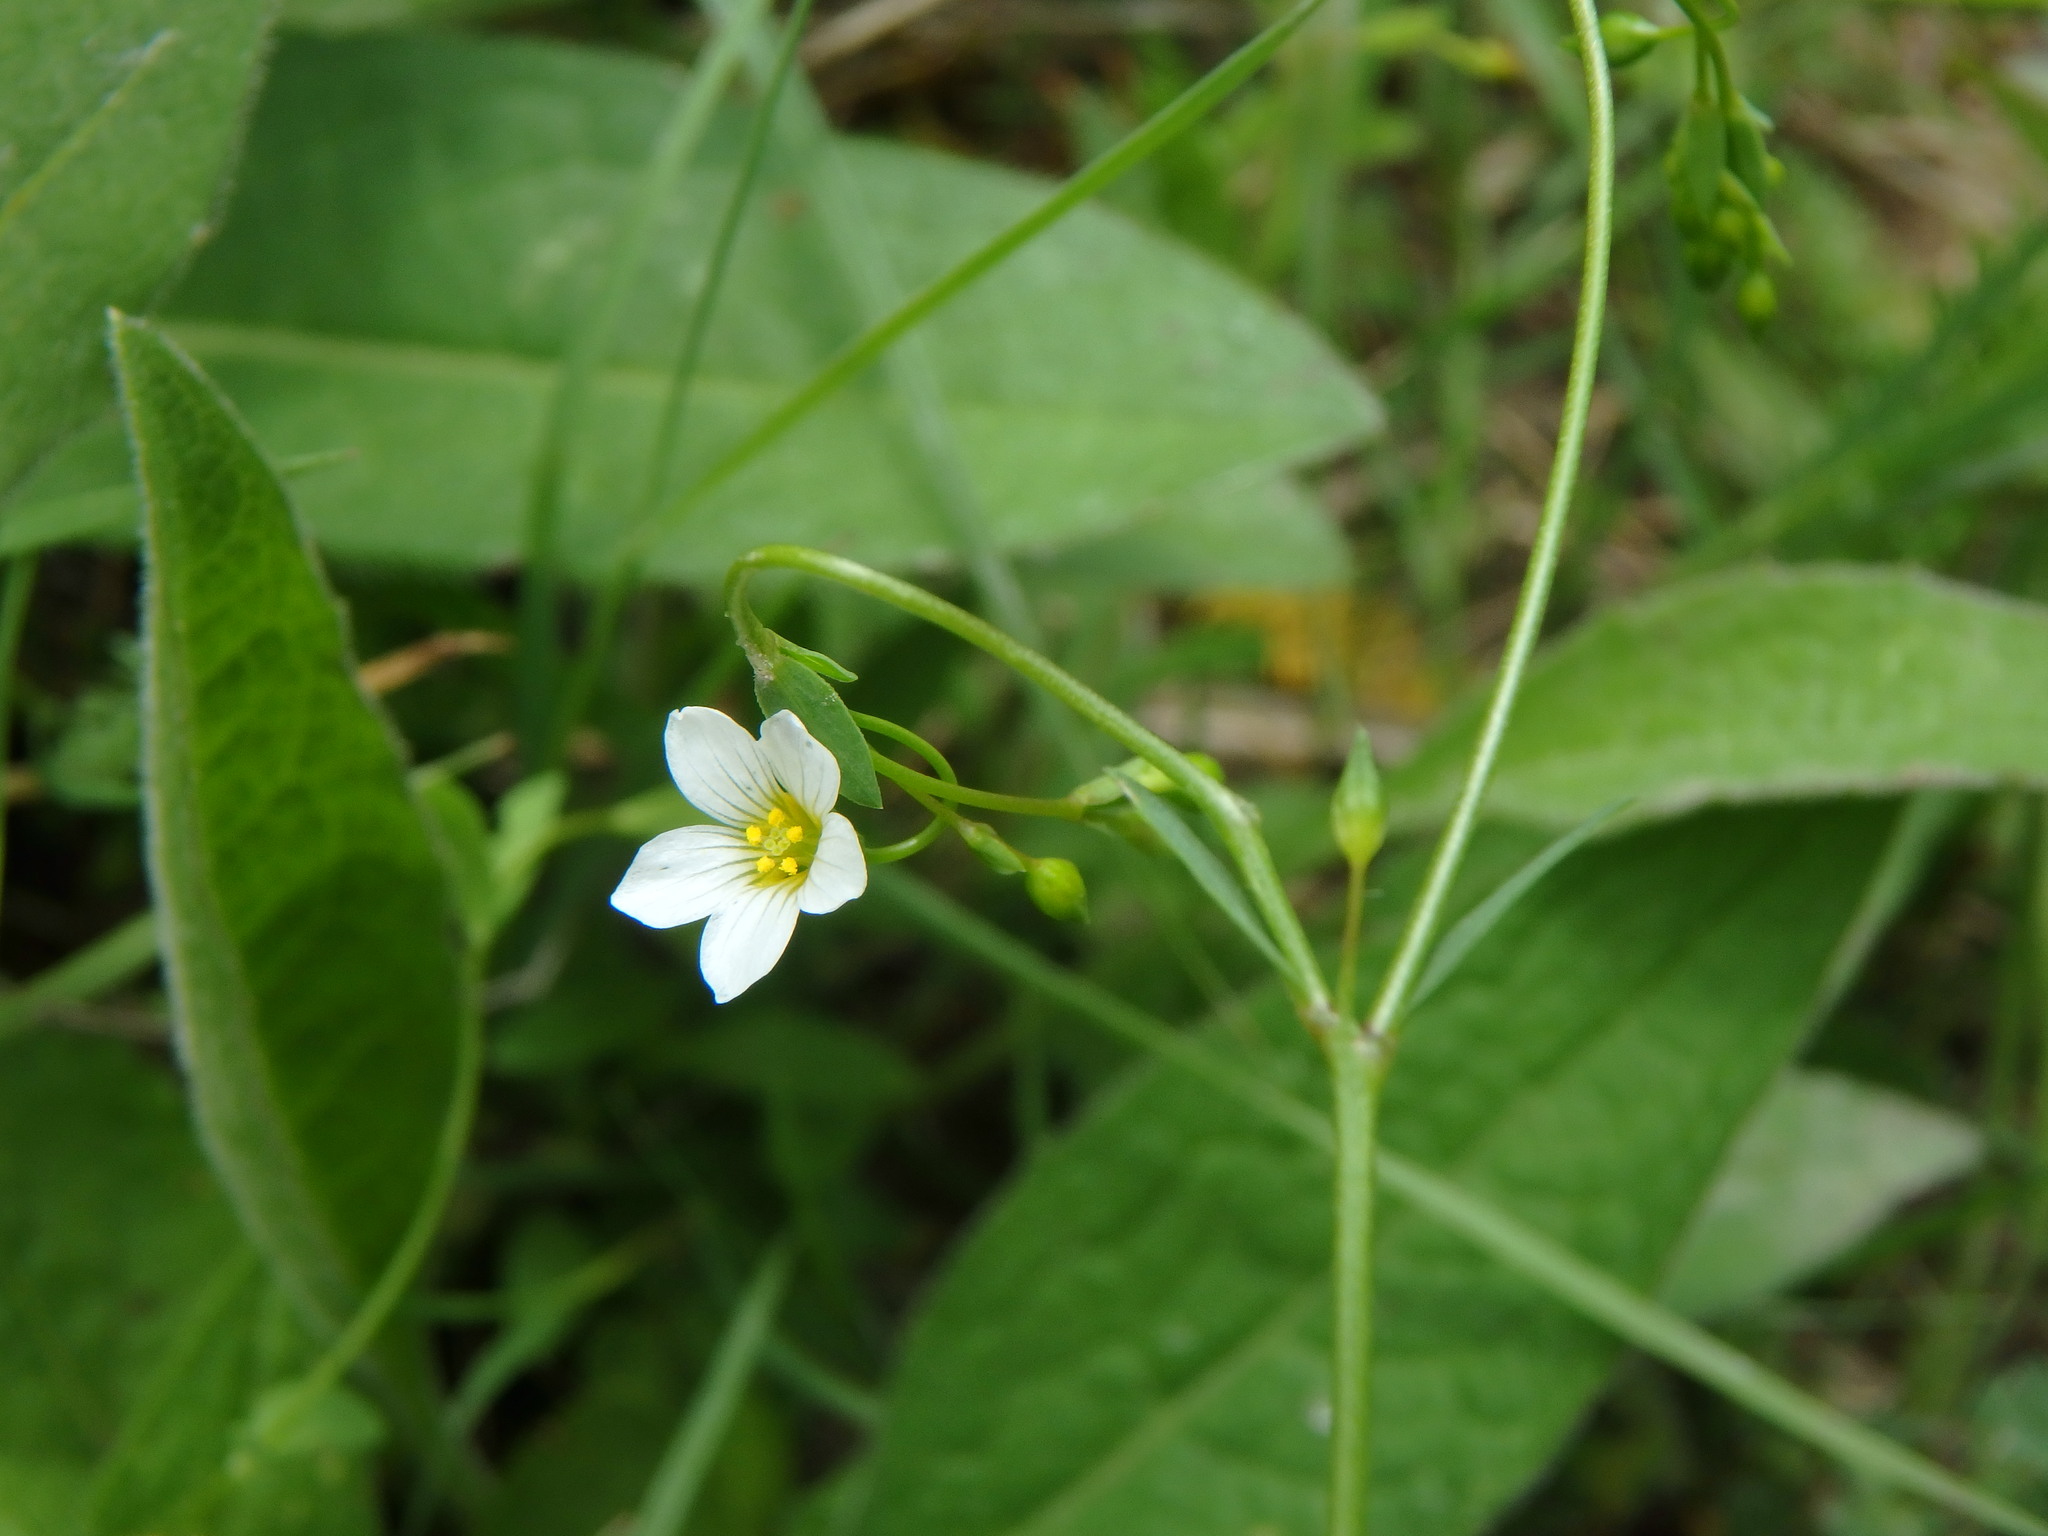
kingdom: Plantae
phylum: Tracheophyta
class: Magnoliopsida
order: Malpighiales
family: Linaceae
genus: Linum
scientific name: Linum catharticum
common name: Fairy flax
